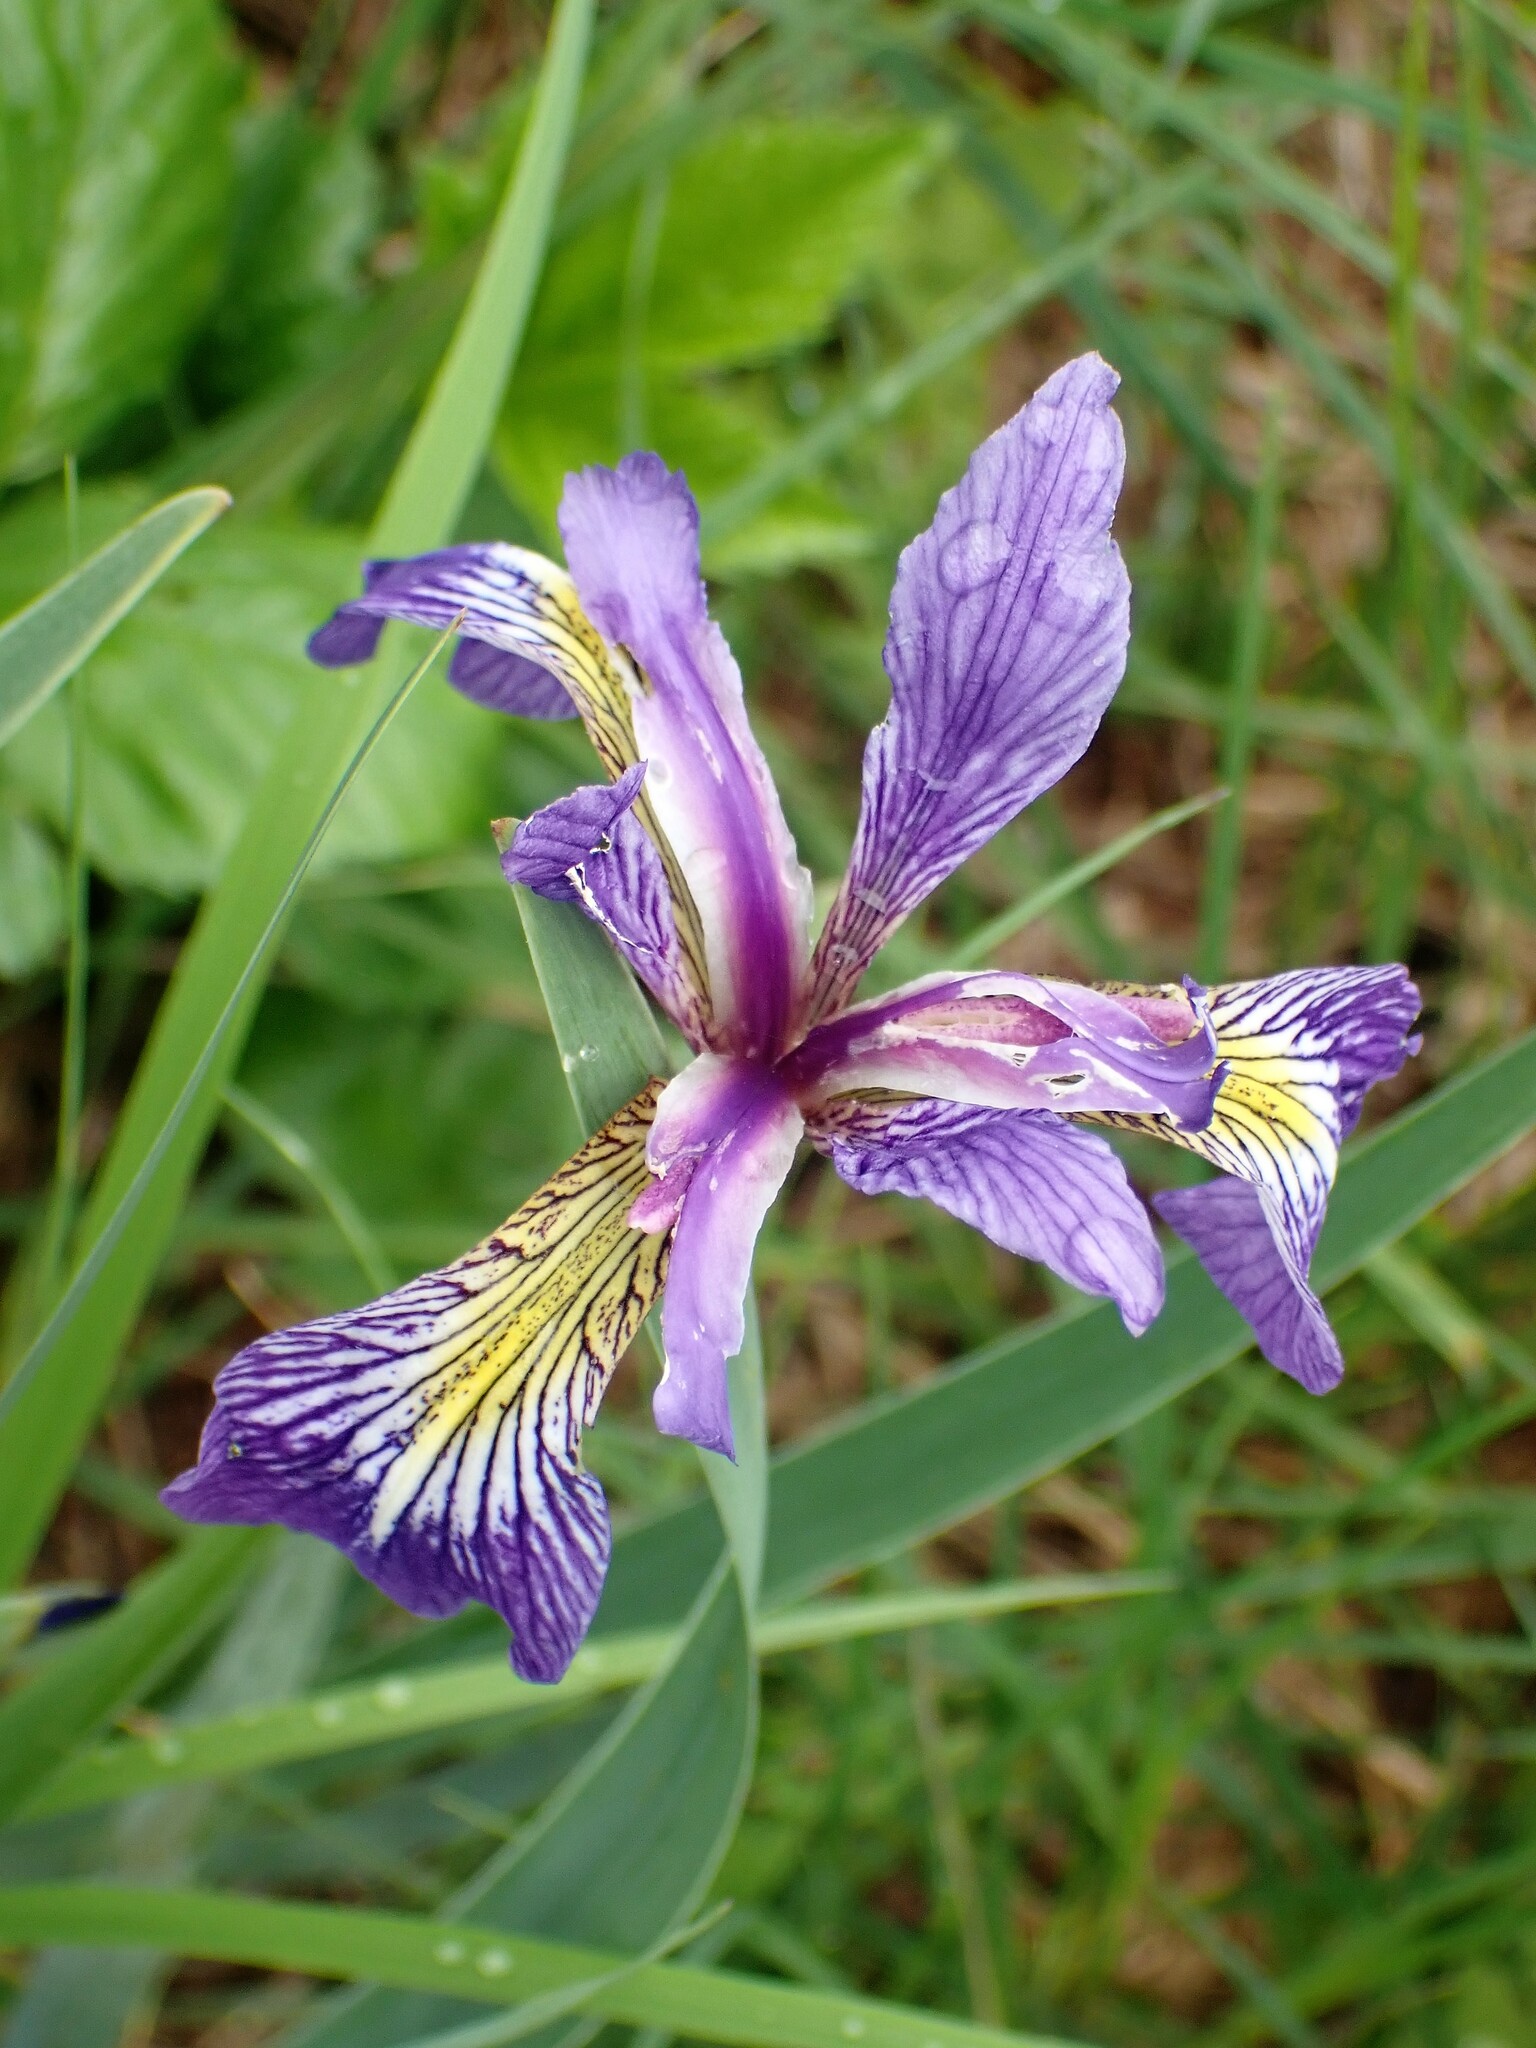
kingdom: Plantae
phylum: Tracheophyta
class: Liliopsida
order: Asparagales
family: Iridaceae
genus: Iris
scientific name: Iris versicolor
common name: Purple iris
